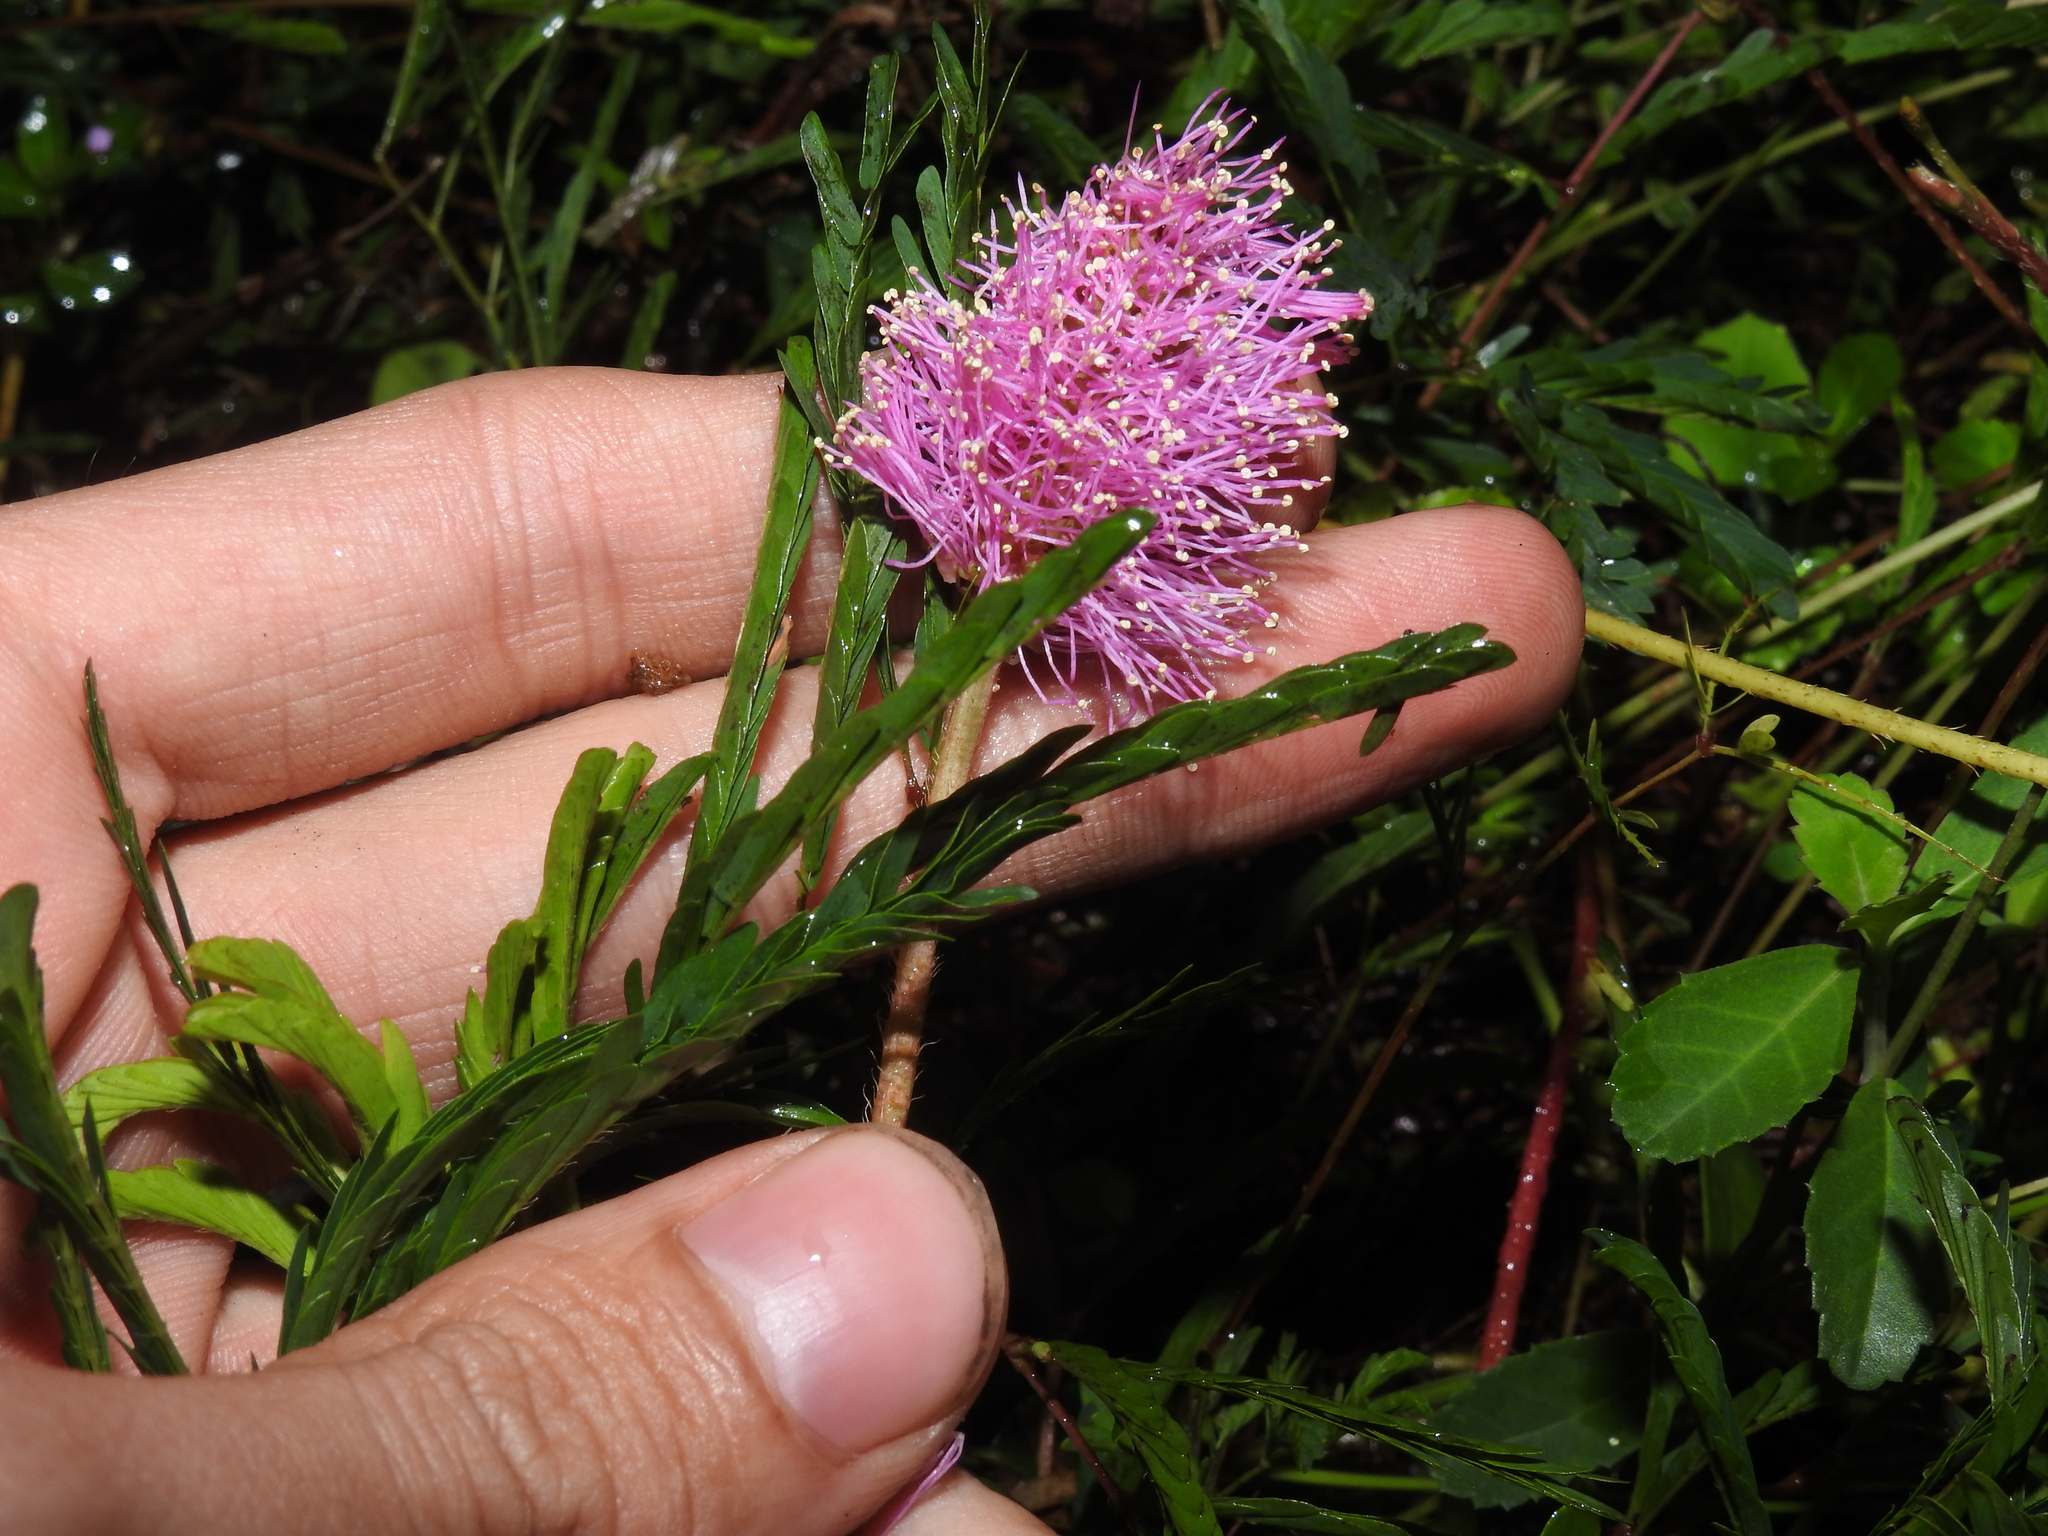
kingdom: Plantae
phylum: Tracheophyta
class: Magnoliopsida
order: Fabales
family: Fabaceae
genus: Mimosa
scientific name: Mimosa strigillosa
